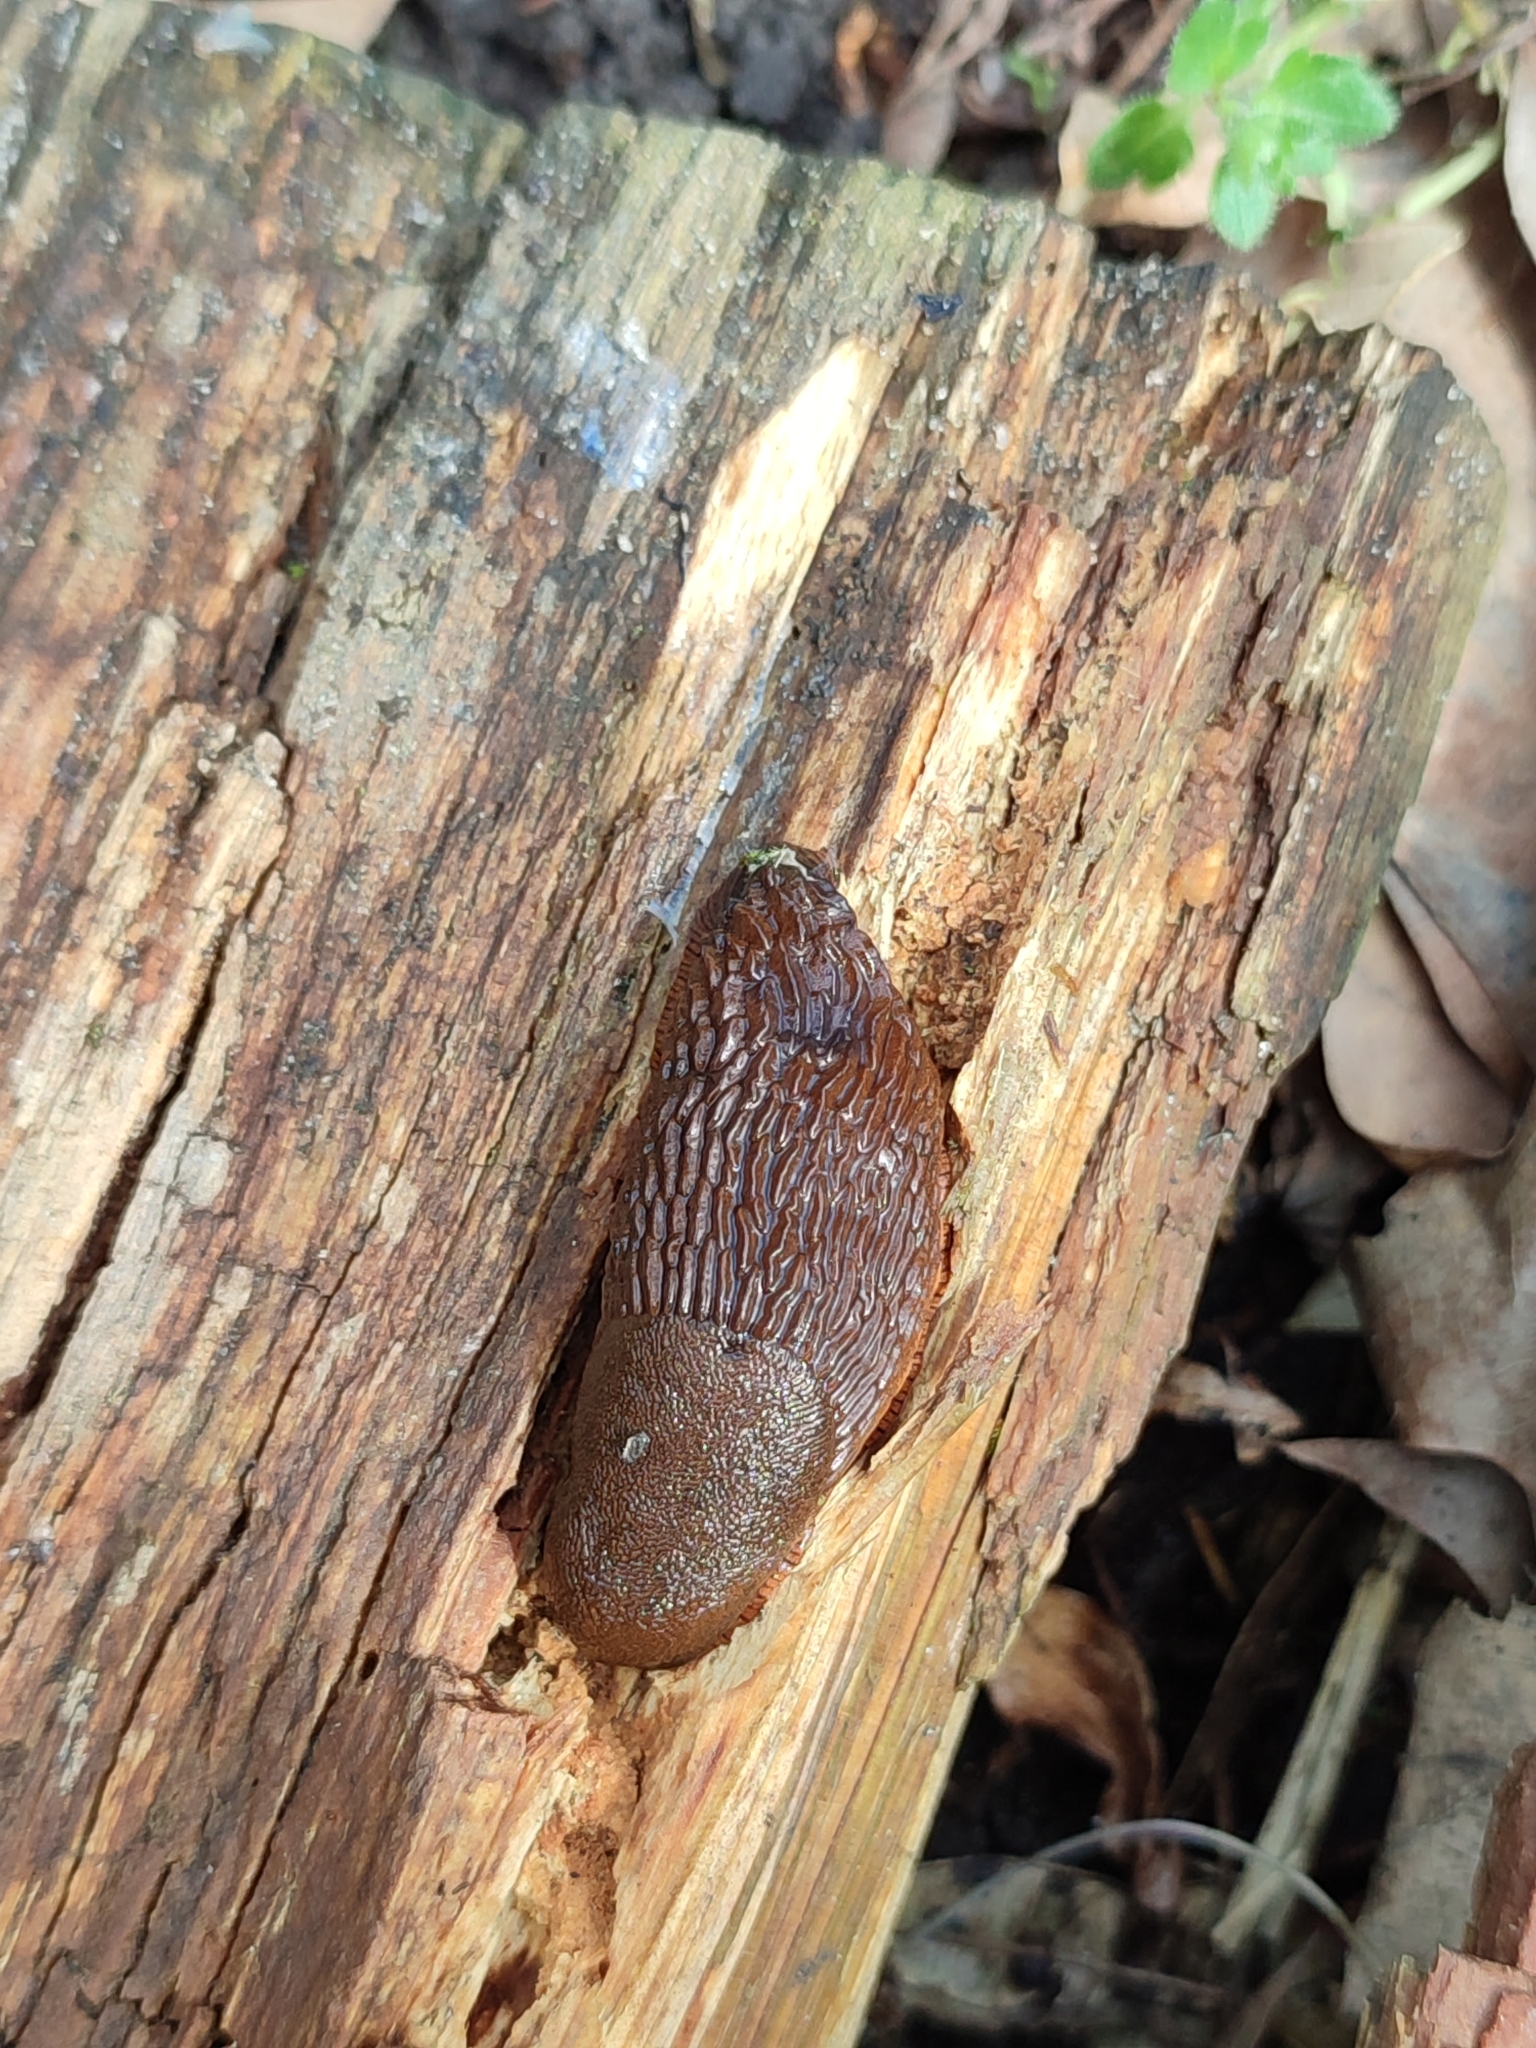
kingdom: Animalia
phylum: Mollusca
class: Gastropoda
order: Stylommatophora
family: Arionidae
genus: Arion
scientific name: Arion vulgaris
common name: Lusitanian slug
